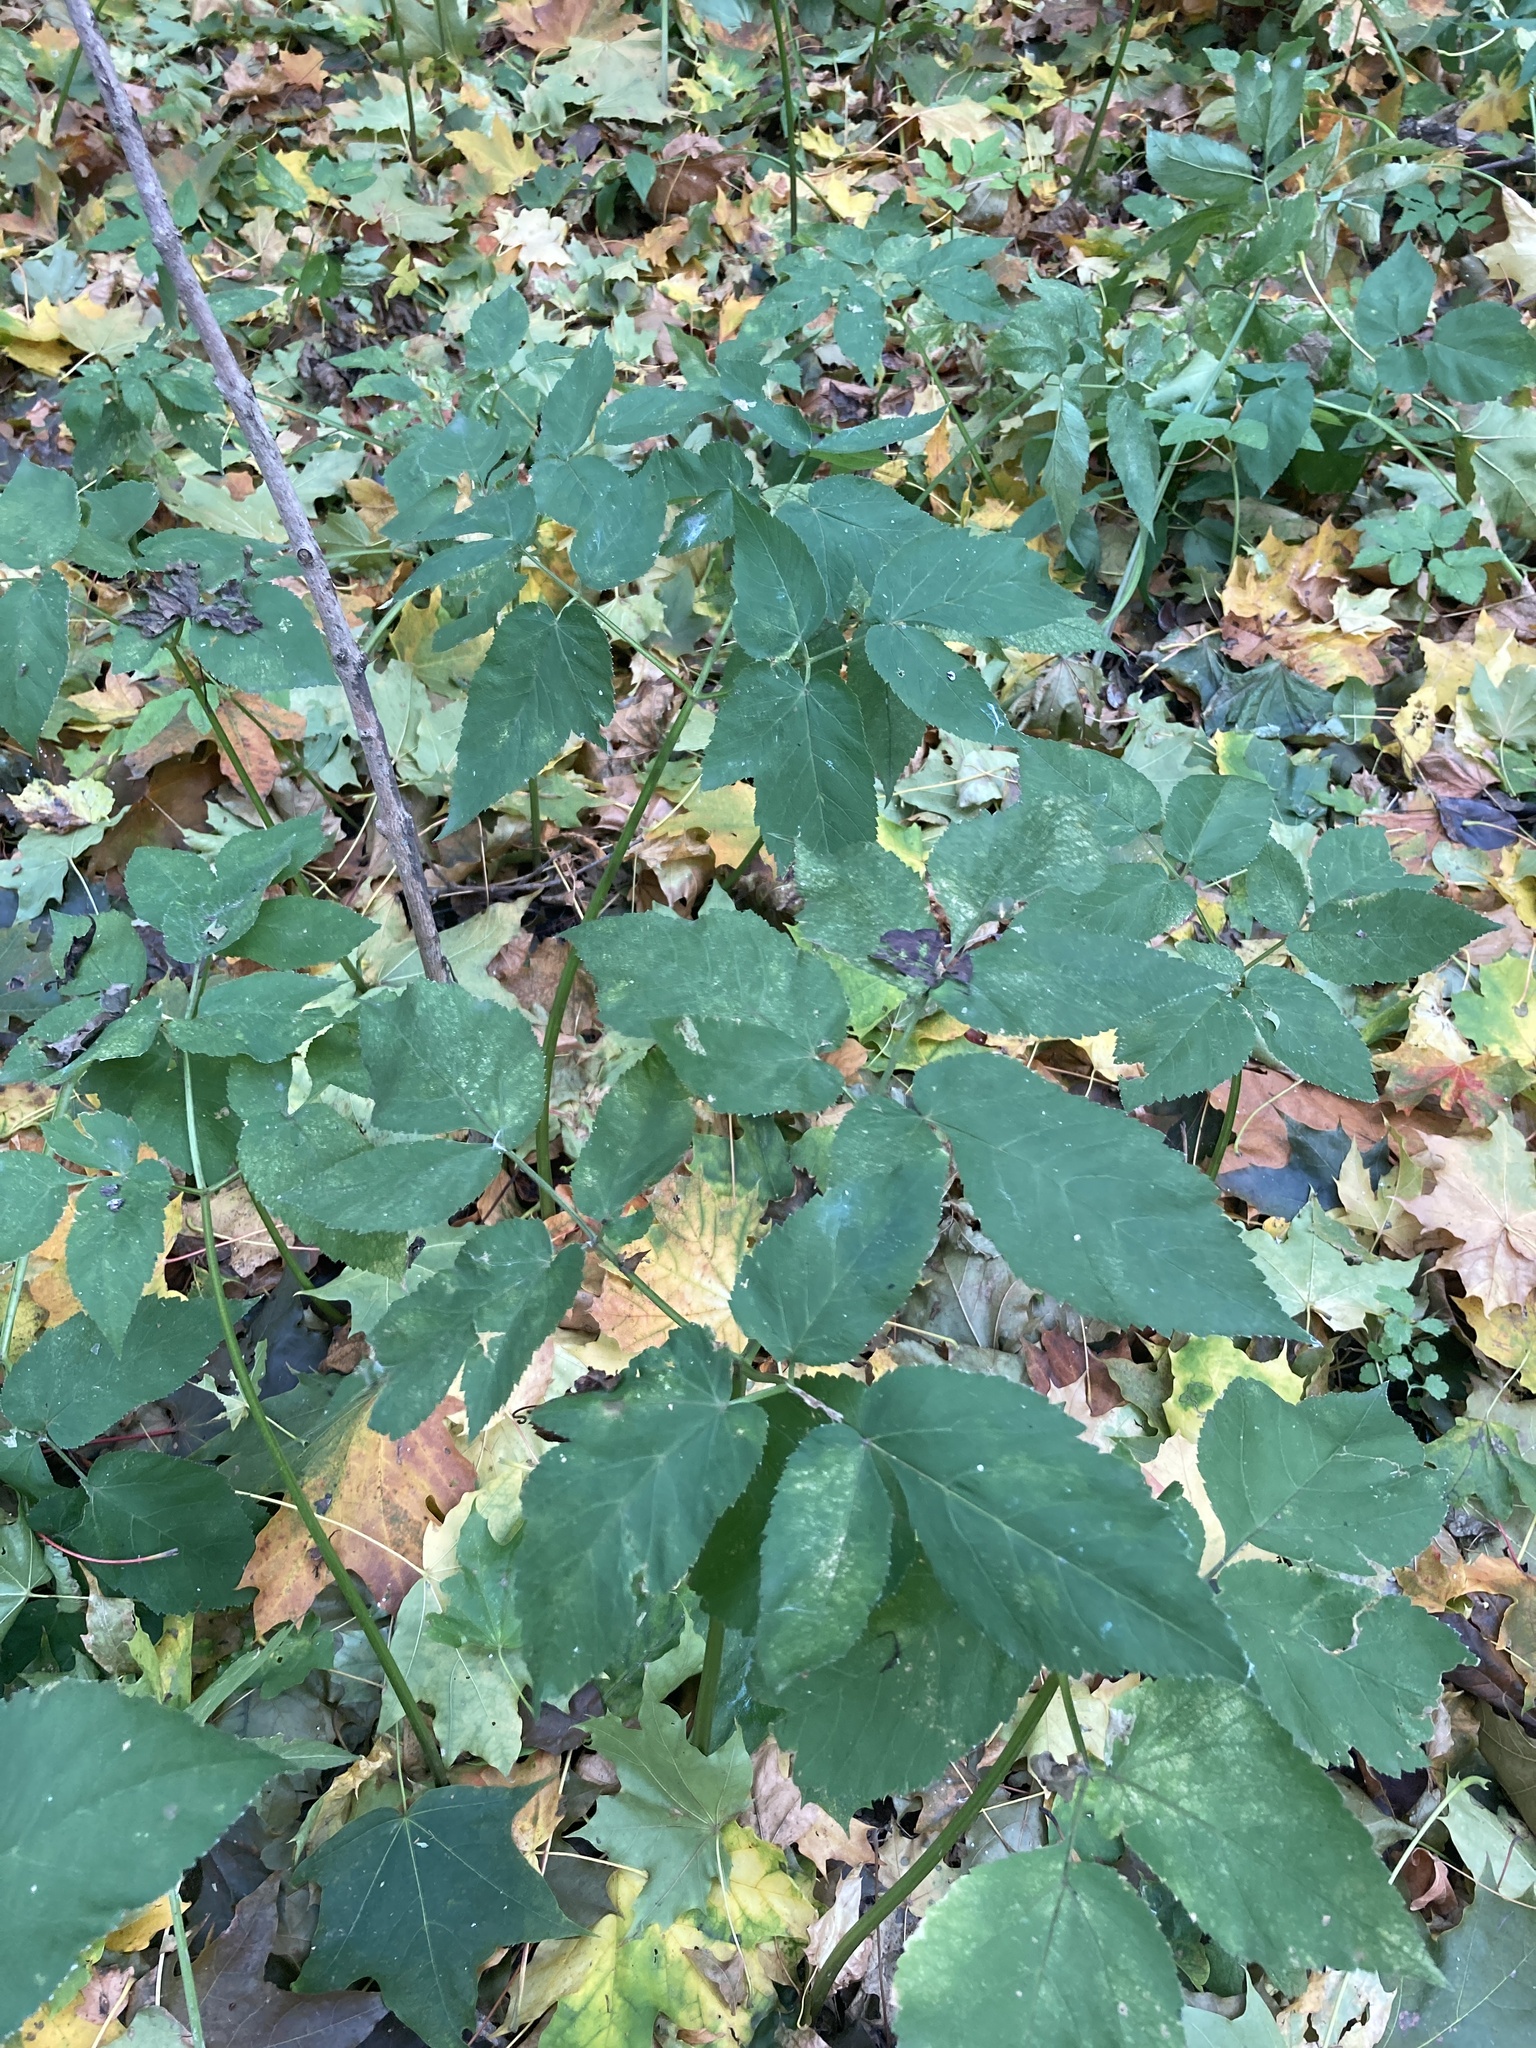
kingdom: Plantae
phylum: Tracheophyta
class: Magnoliopsida
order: Apiales
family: Apiaceae
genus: Aegopodium
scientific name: Aegopodium podagraria
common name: Ground-elder
